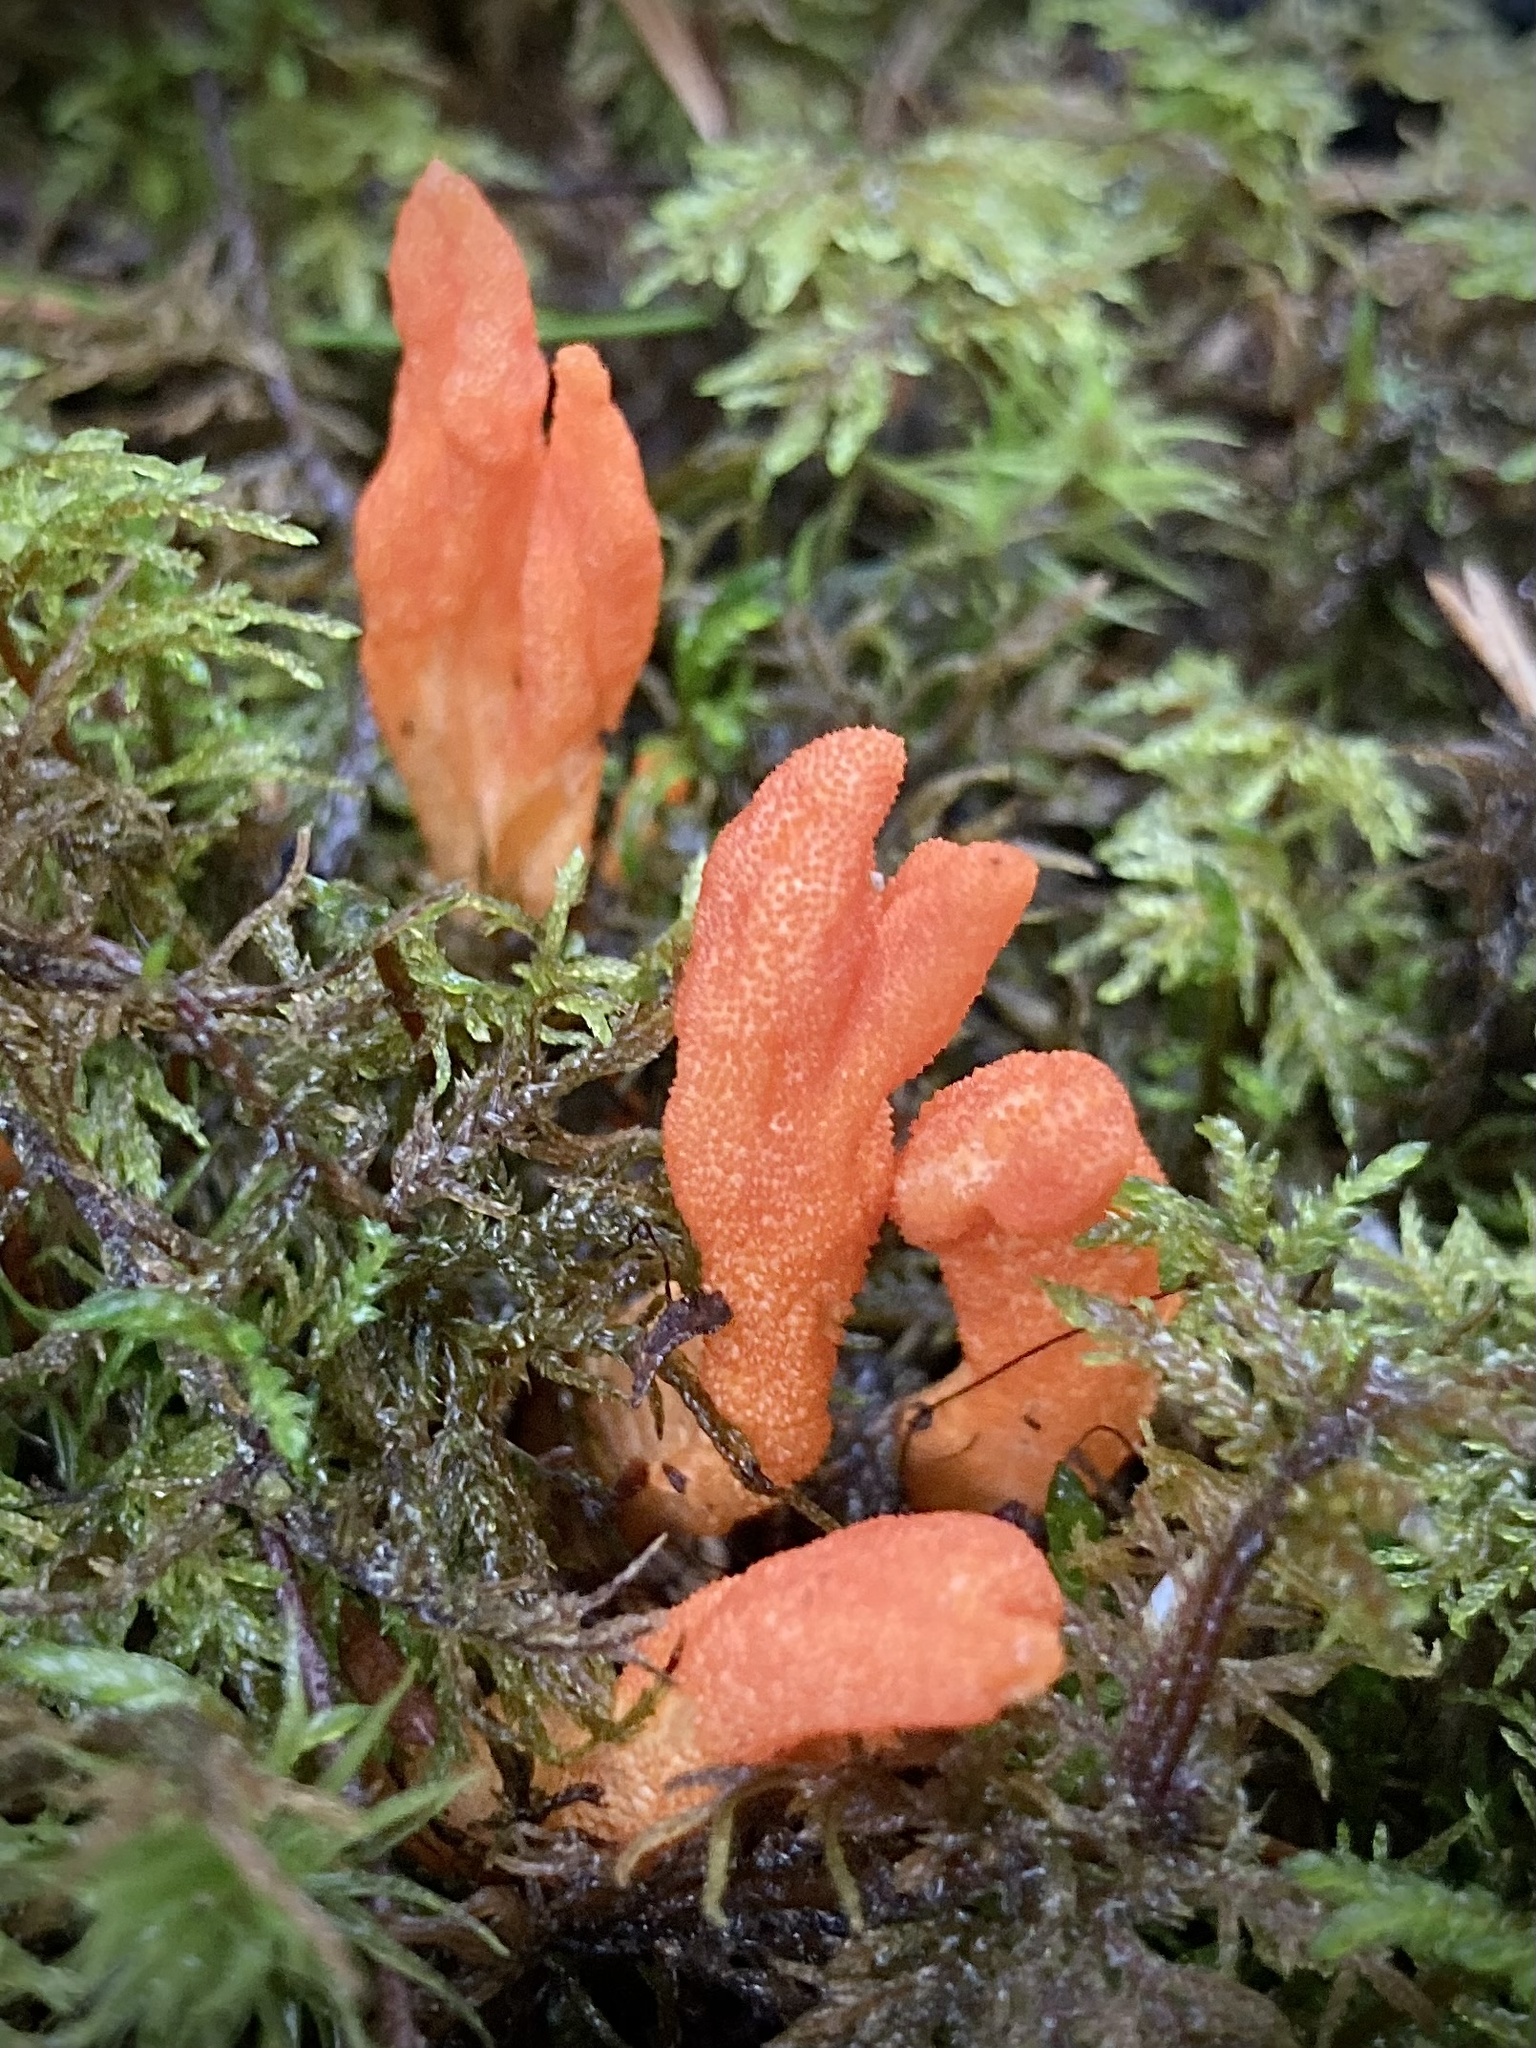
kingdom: Fungi
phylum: Ascomycota
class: Sordariomycetes
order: Hypocreales
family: Cordycipitaceae
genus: Cordyceps
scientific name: Cordyceps militaris
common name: Scarlet caterpillar fungus
